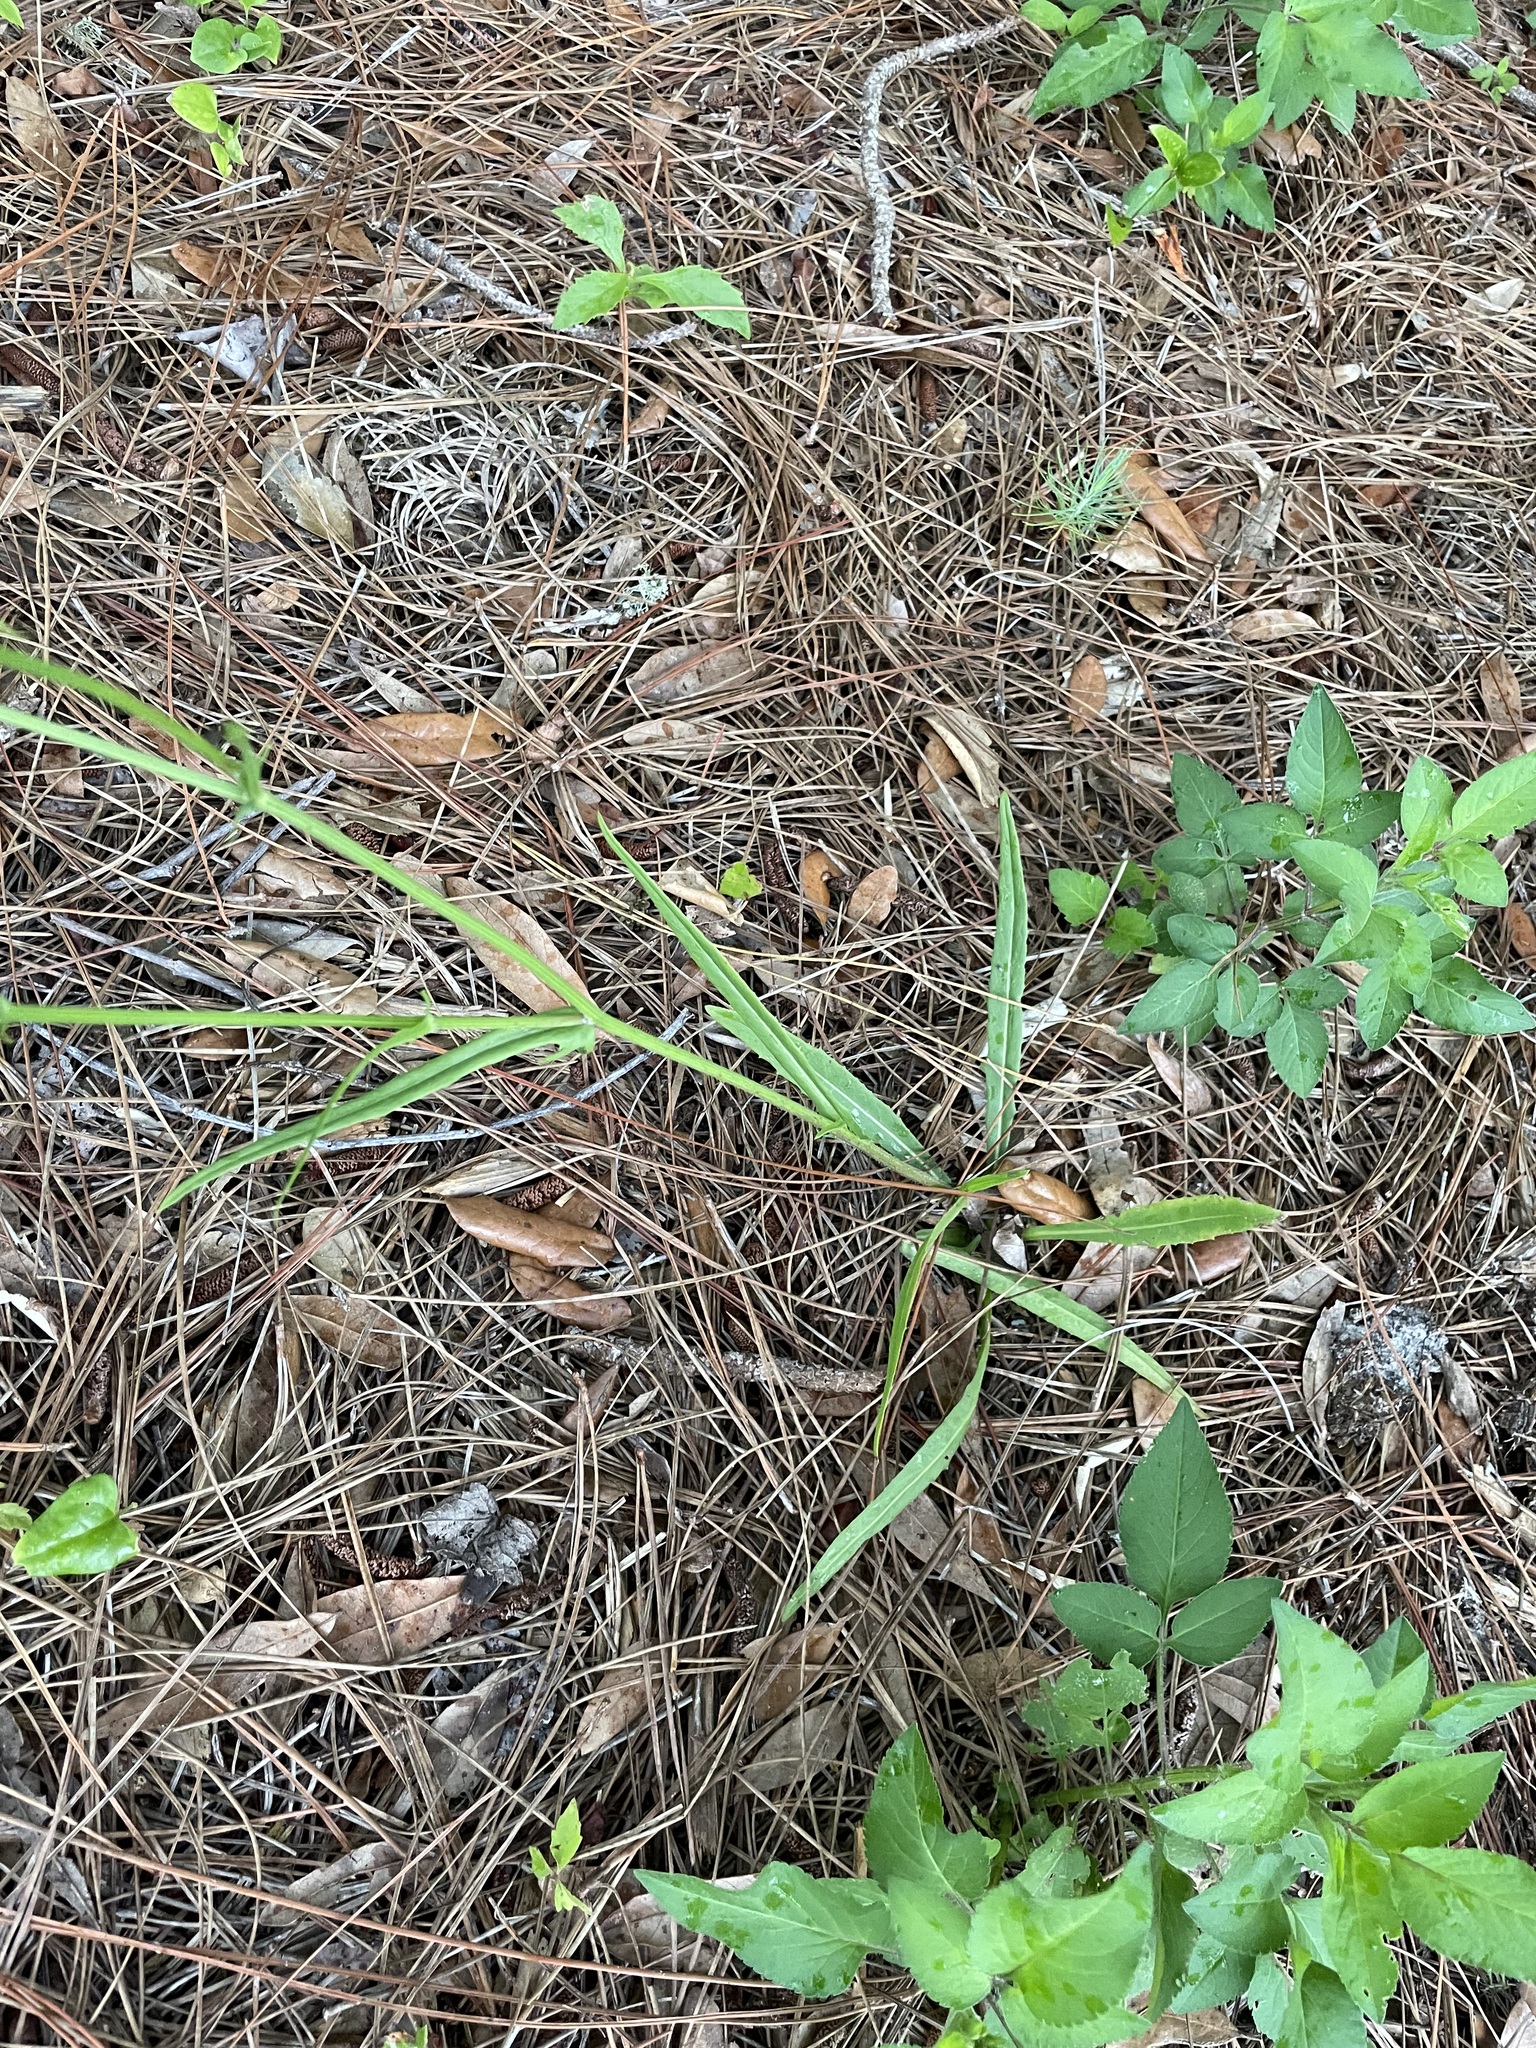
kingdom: Plantae
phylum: Tracheophyta
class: Magnoliopsida
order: Asterales
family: Asteraceae
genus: Pyrrhopappus
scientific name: Pyrrhopappus carolinianus
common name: Carolina desert-chicory
